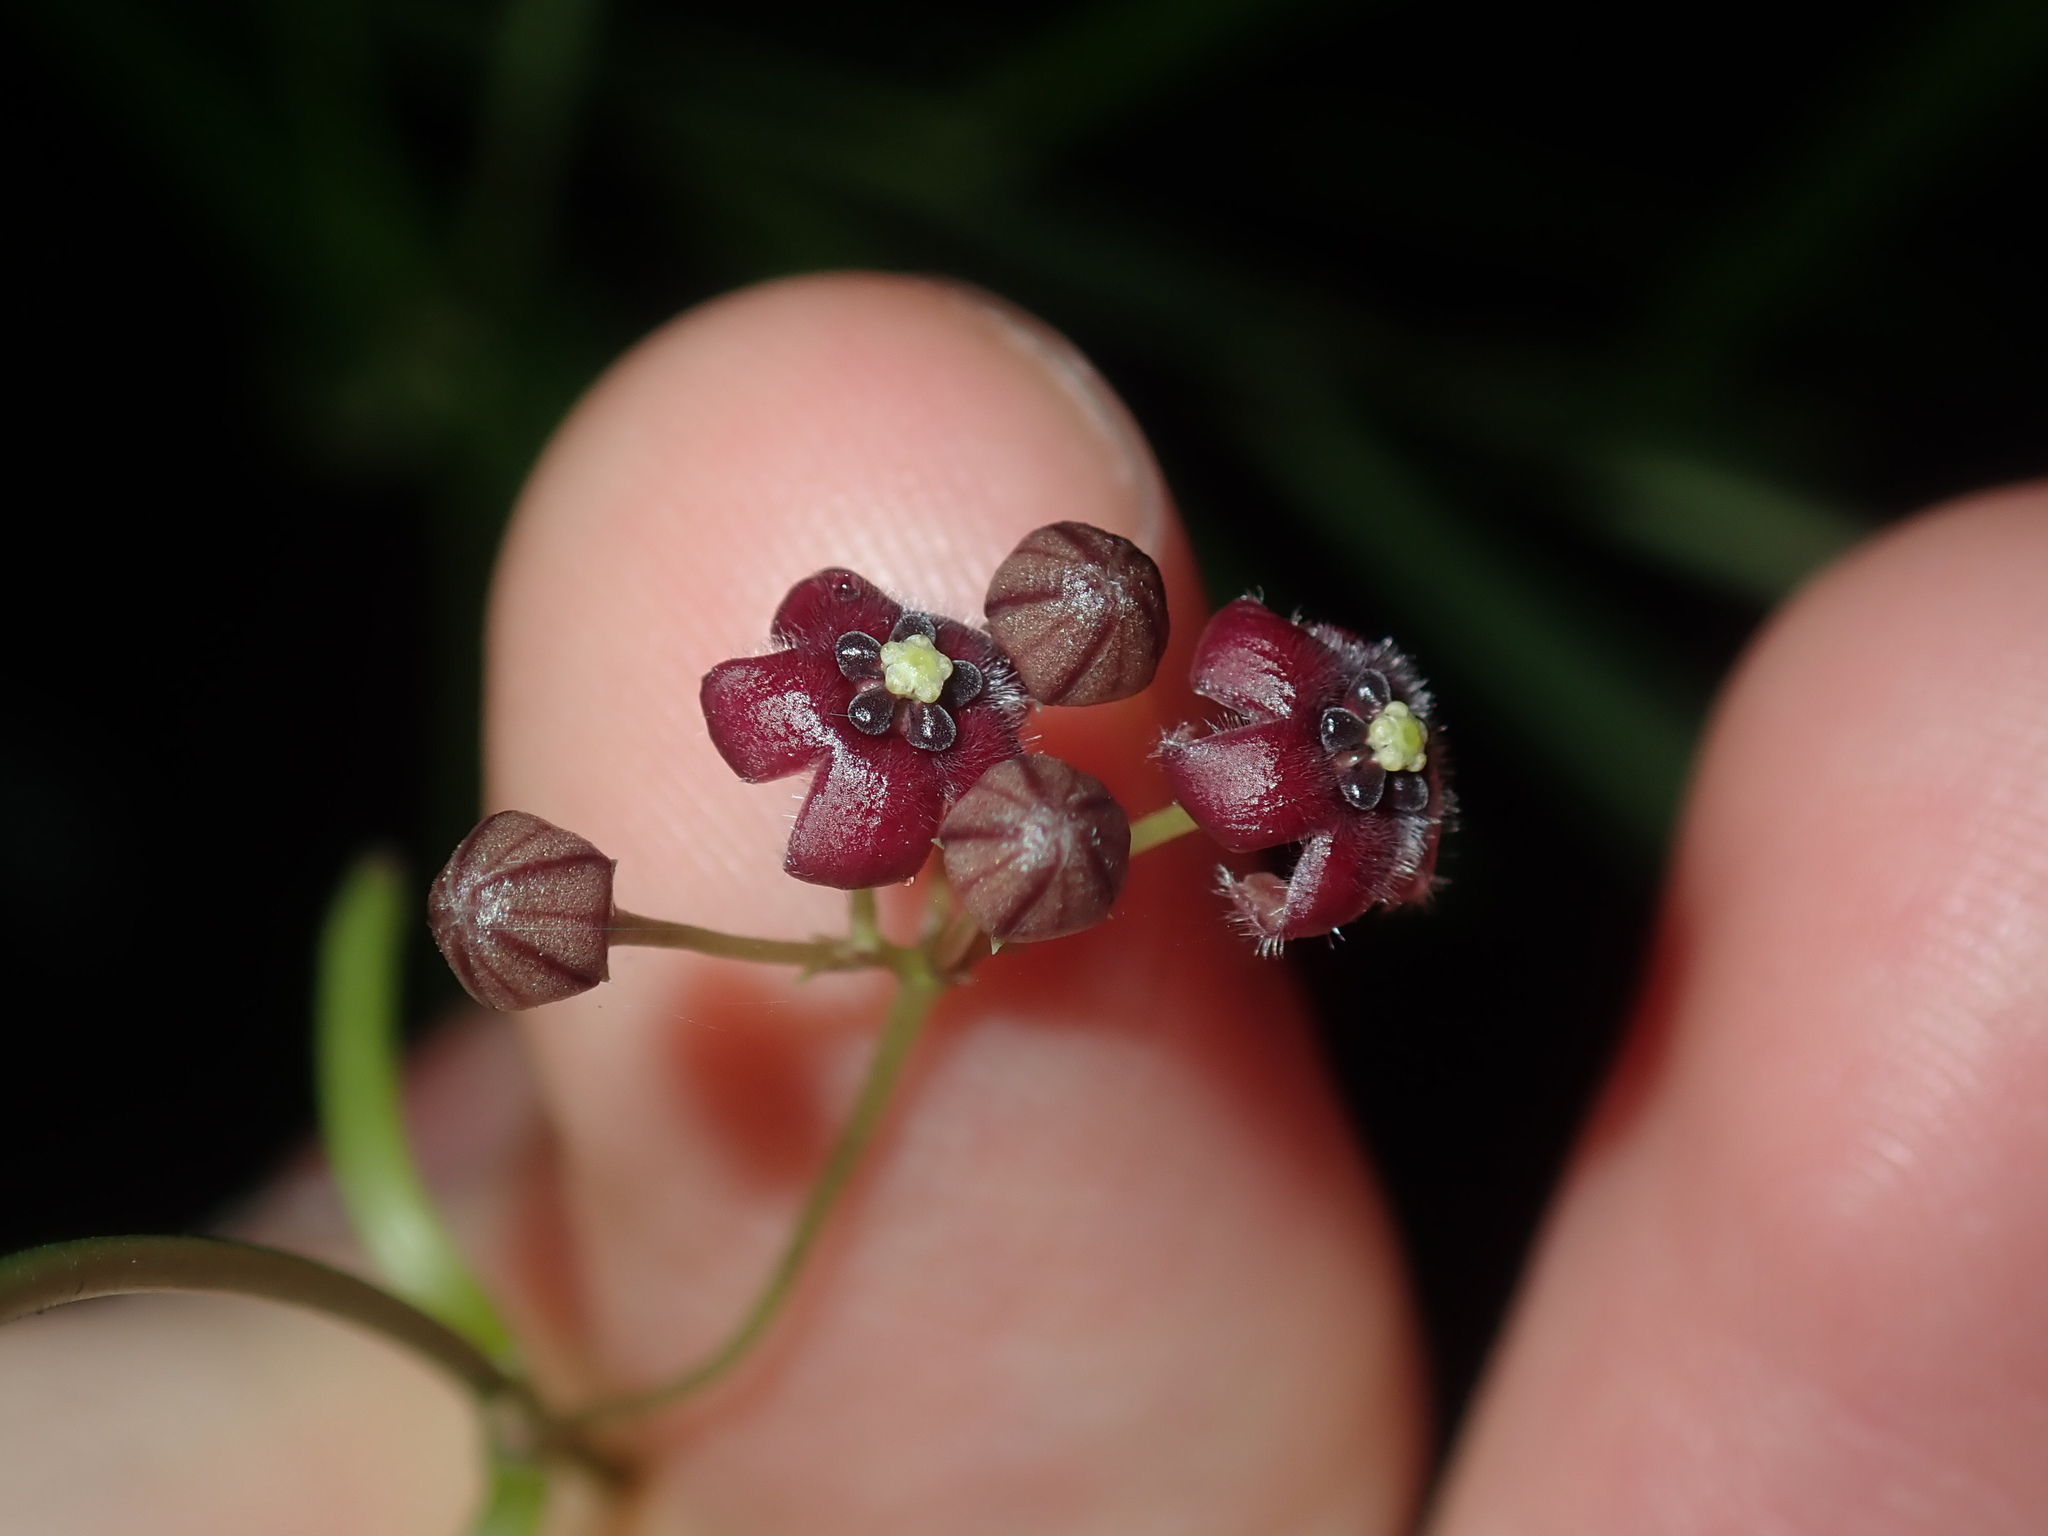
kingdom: Plantae
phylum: Tracheophyta
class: Magnoliopsida
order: Gentianales
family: Apocynaceae
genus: Vincetoxicum
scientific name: Vincetoxicum barbatum
